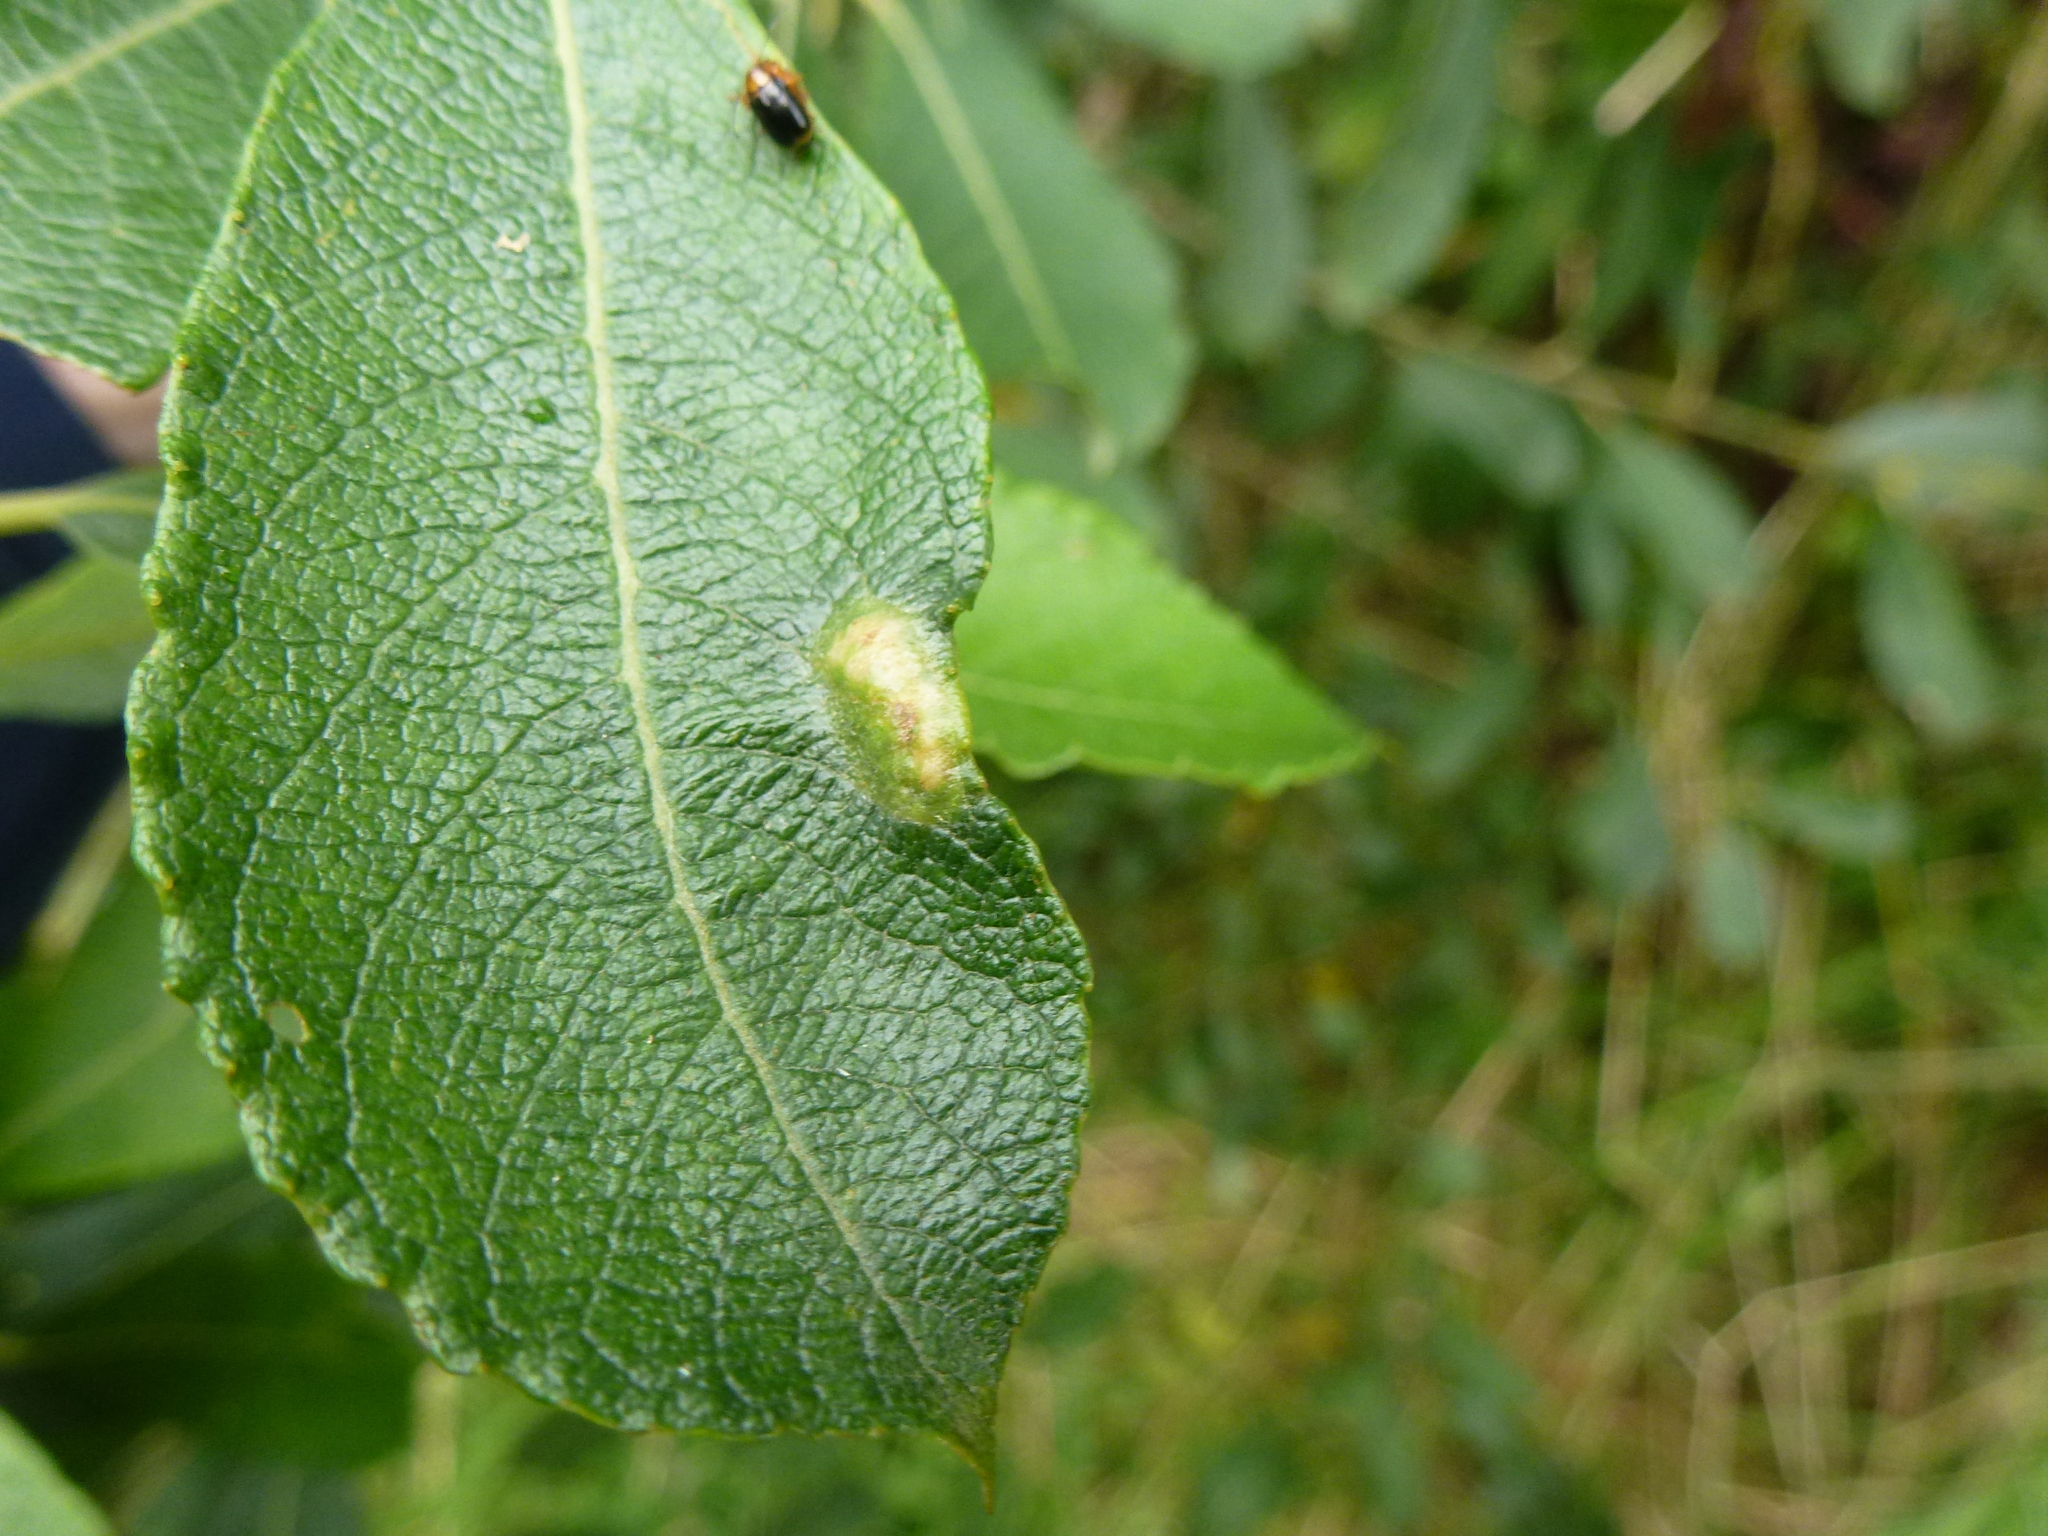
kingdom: Animalia
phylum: Arthropoda
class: Insecta
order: Diptera
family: Cecidomyiidae
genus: Iteomyia
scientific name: Iteomyia major
